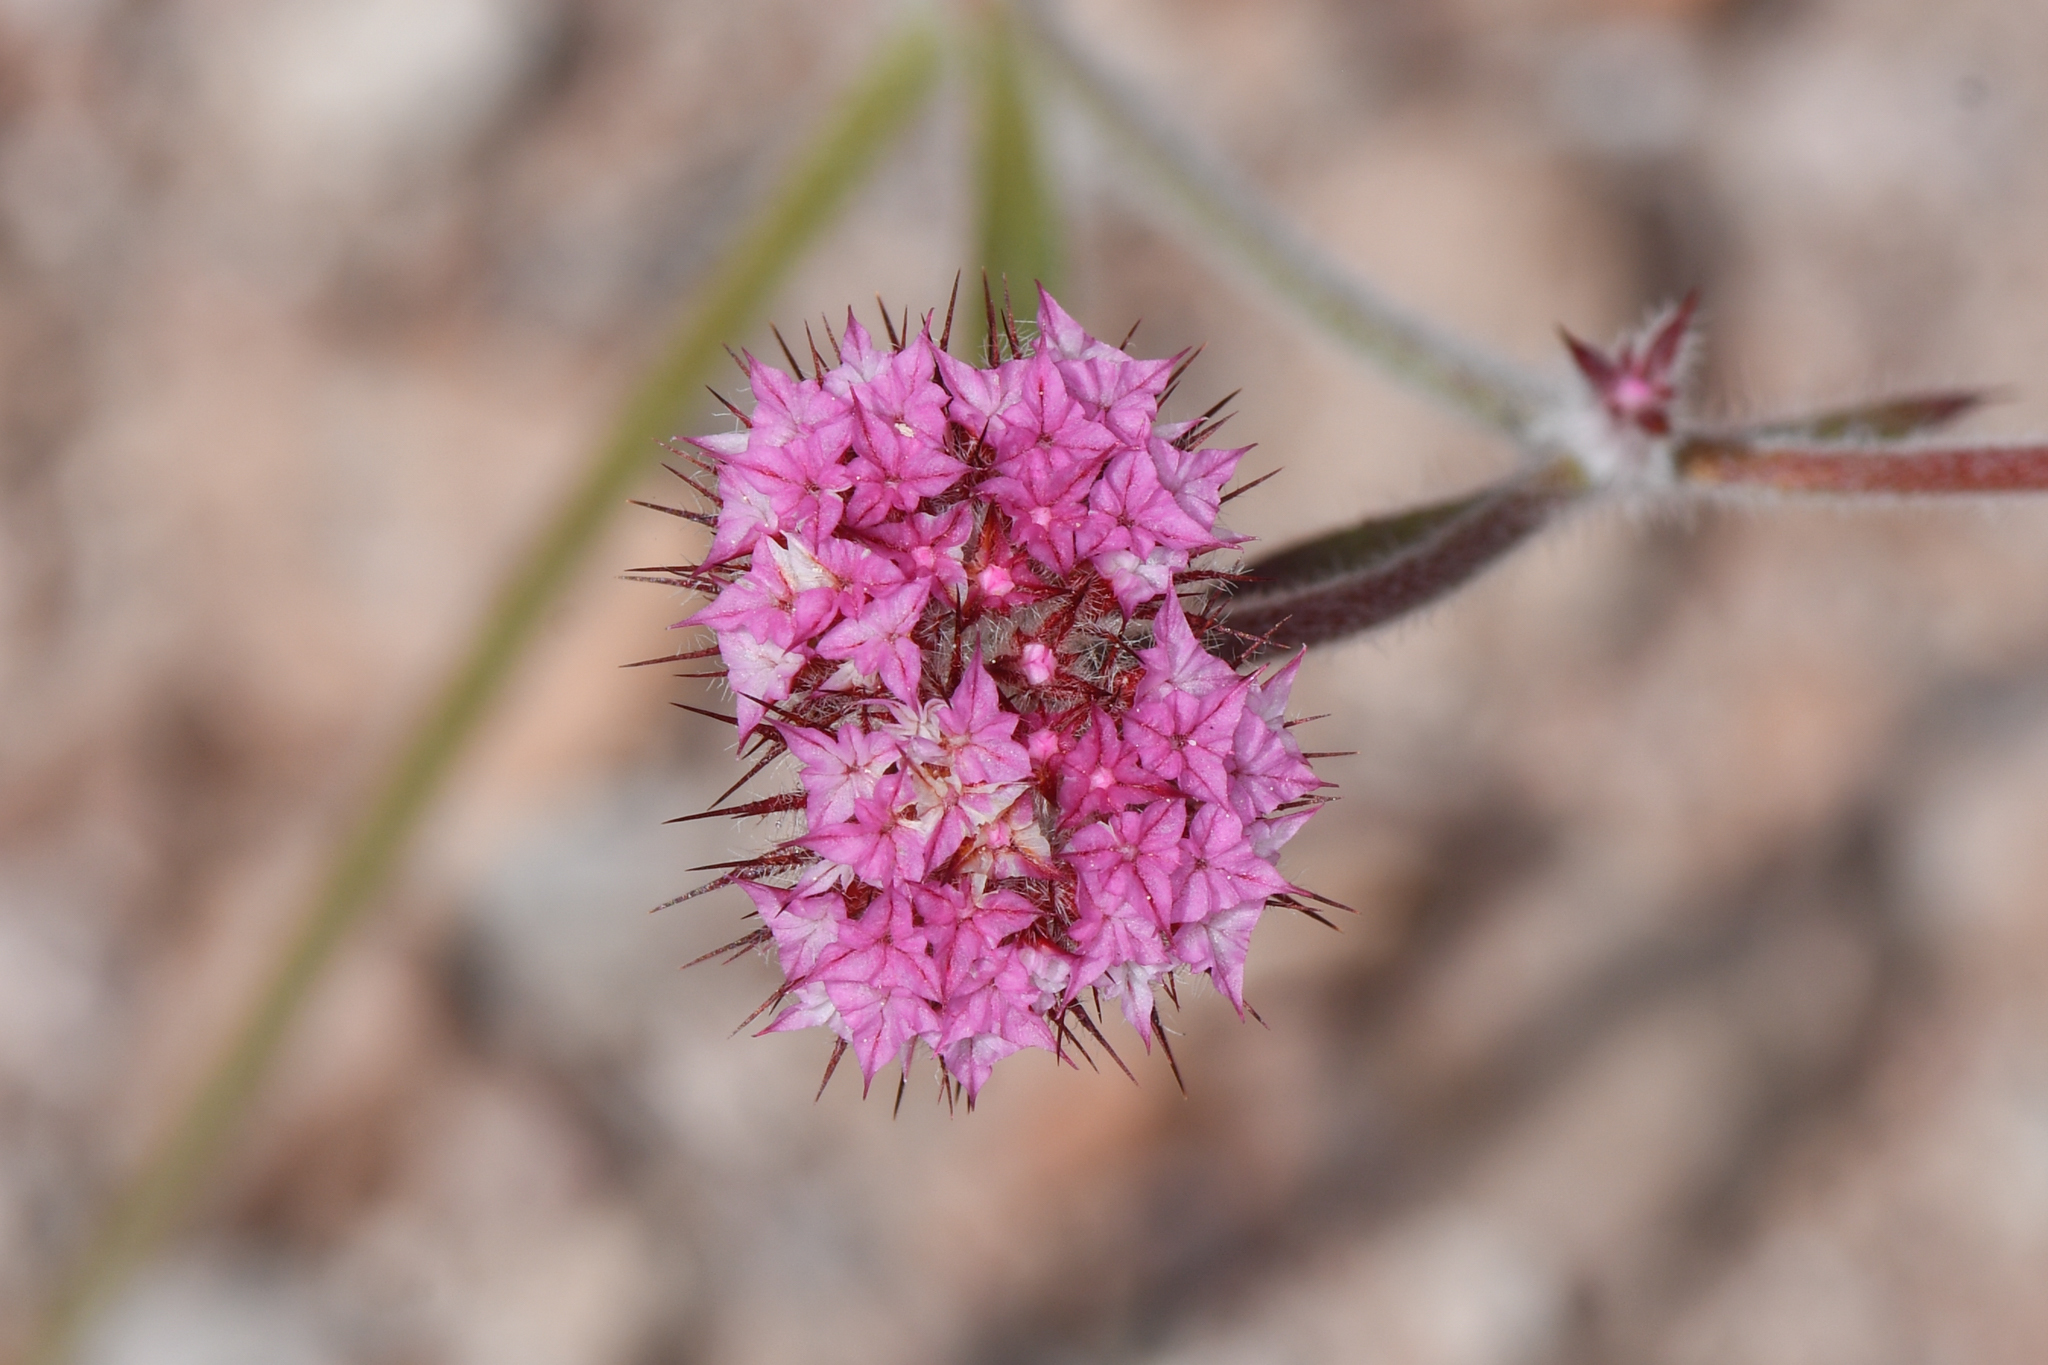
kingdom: Plantae
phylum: Tracheophyta
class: Magnoliopsida
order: Caryophyllales
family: Polygonaceae
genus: Chorizanthe
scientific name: Chorizanthe douglasii
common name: Douglas's spineflower
